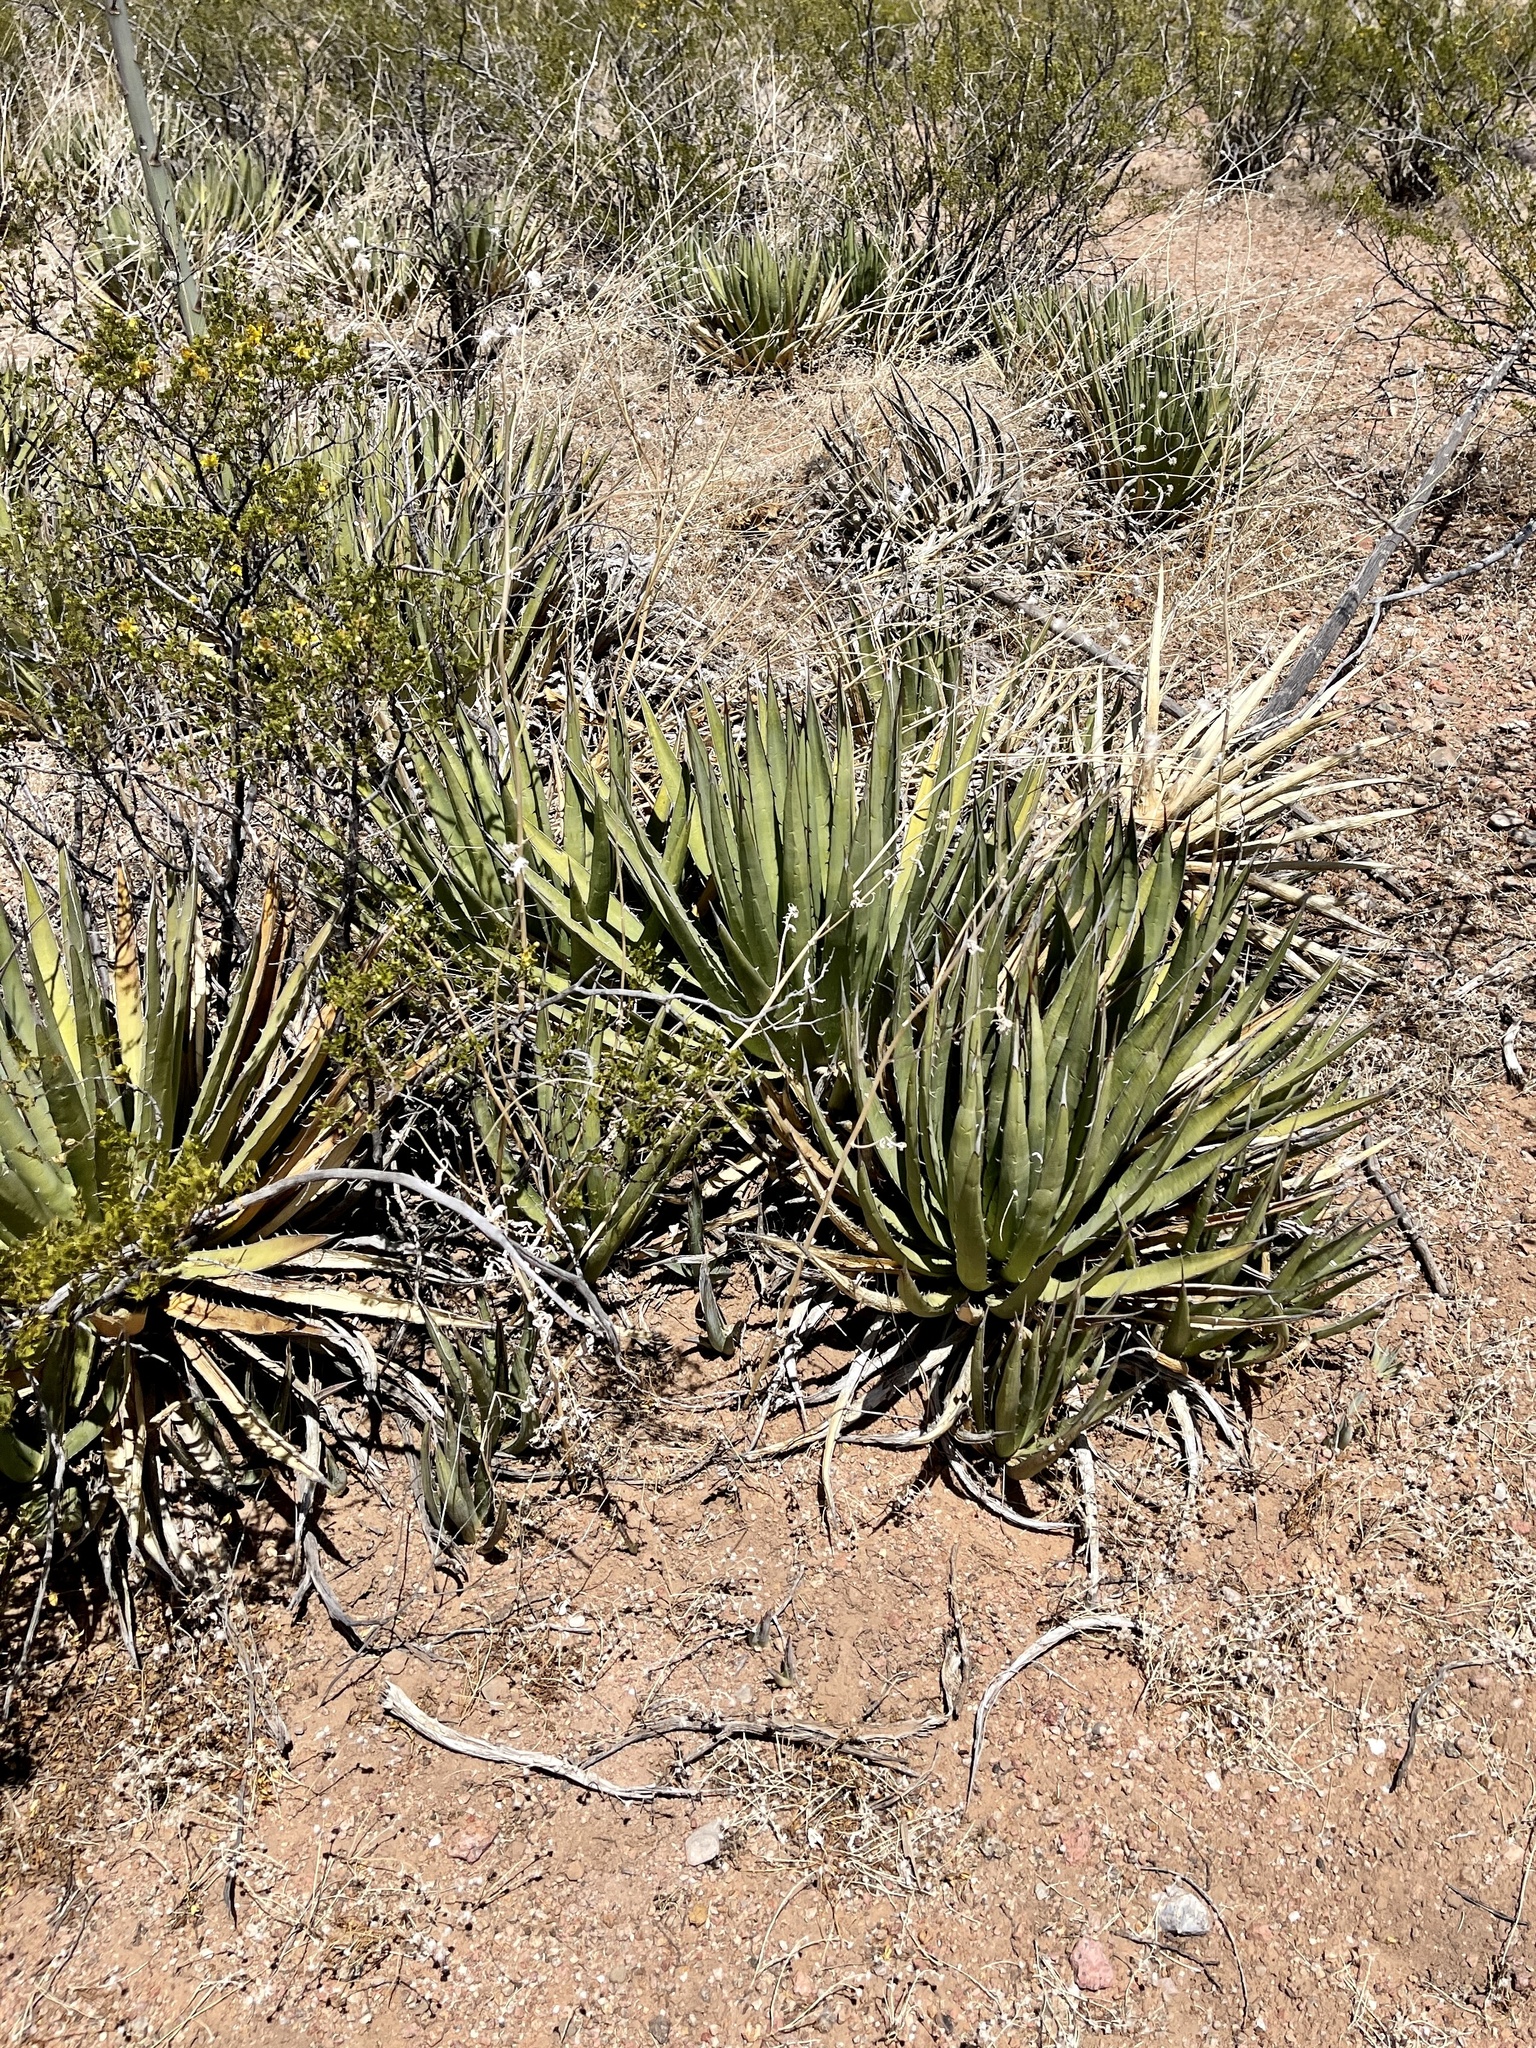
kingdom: Plantae
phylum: Tracheophyta
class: Liliopsida
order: Asparagales
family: Asparagaceae
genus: Agave
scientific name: Agave lechuguilla
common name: Lecheguilla agave
